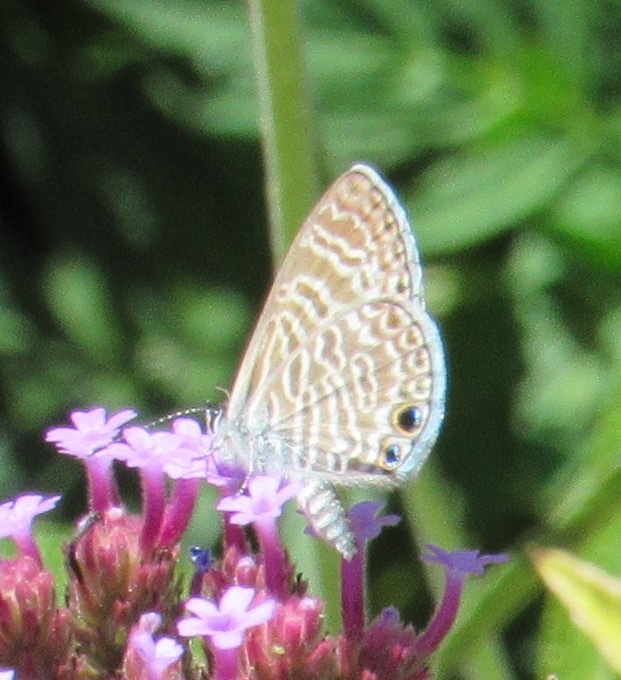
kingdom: Animalia
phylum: Arthropoda
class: Insecta
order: Lepidoptera
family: Lycaenidae
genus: Leptotes
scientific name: Leptotes marina
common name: Marine blue
